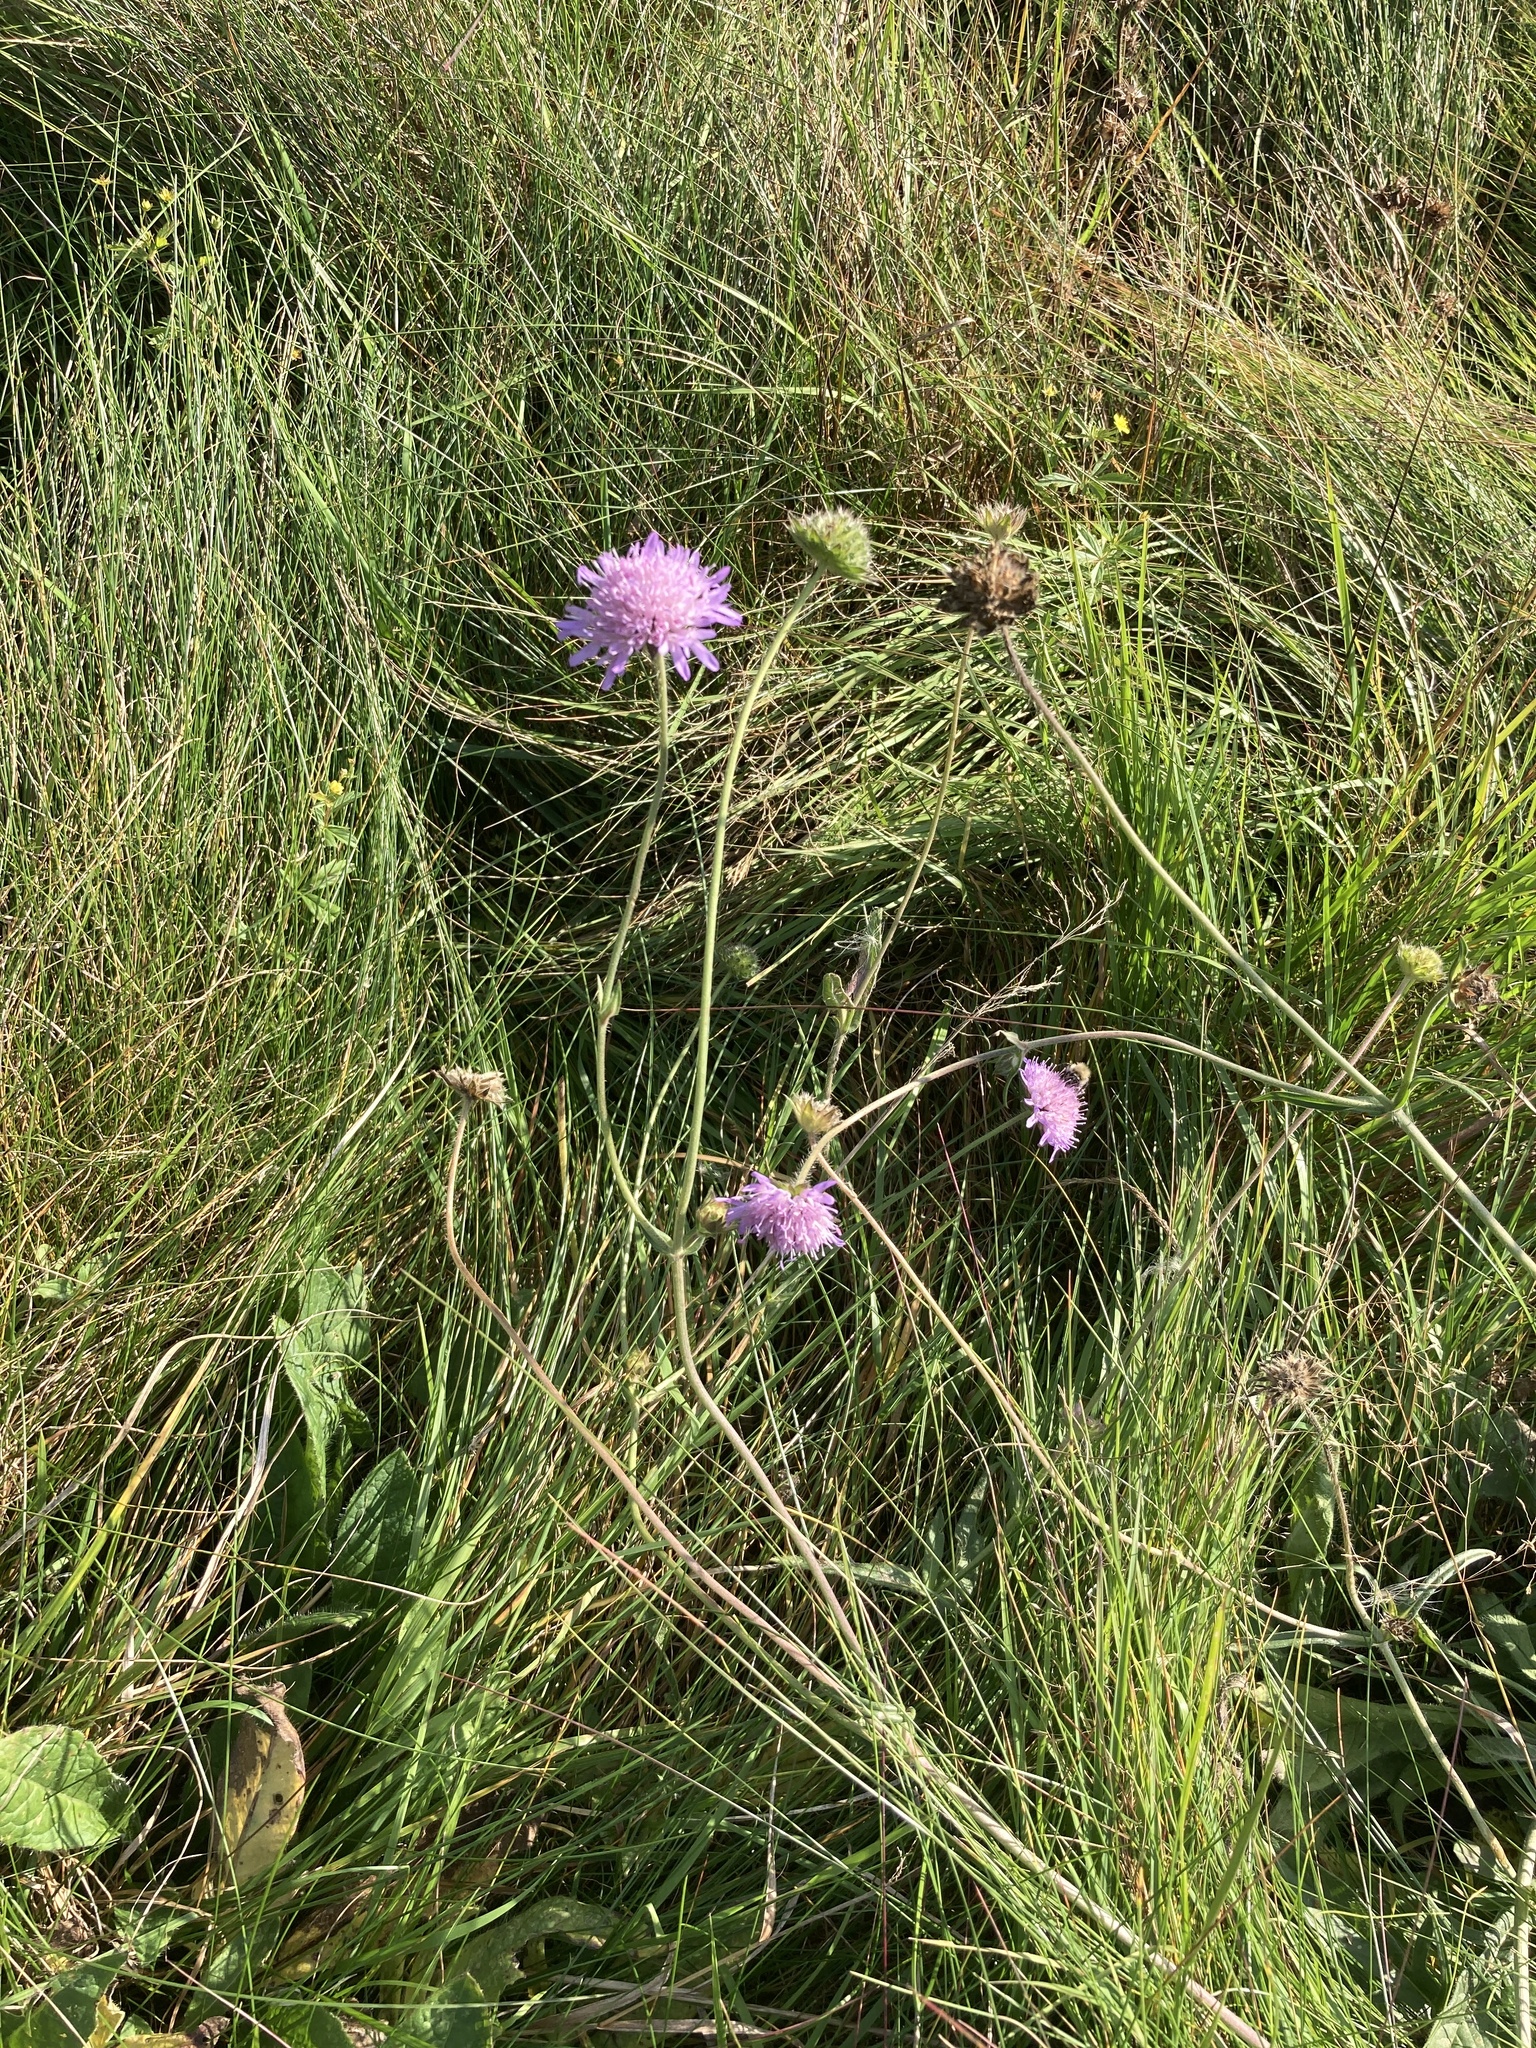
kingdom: Plantae
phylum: Tracheophyta
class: Magnoliopsida
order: Dipsacales
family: Caprifoliaceae
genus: Knautia
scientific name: Knautia arvensis
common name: Field scabiosa
